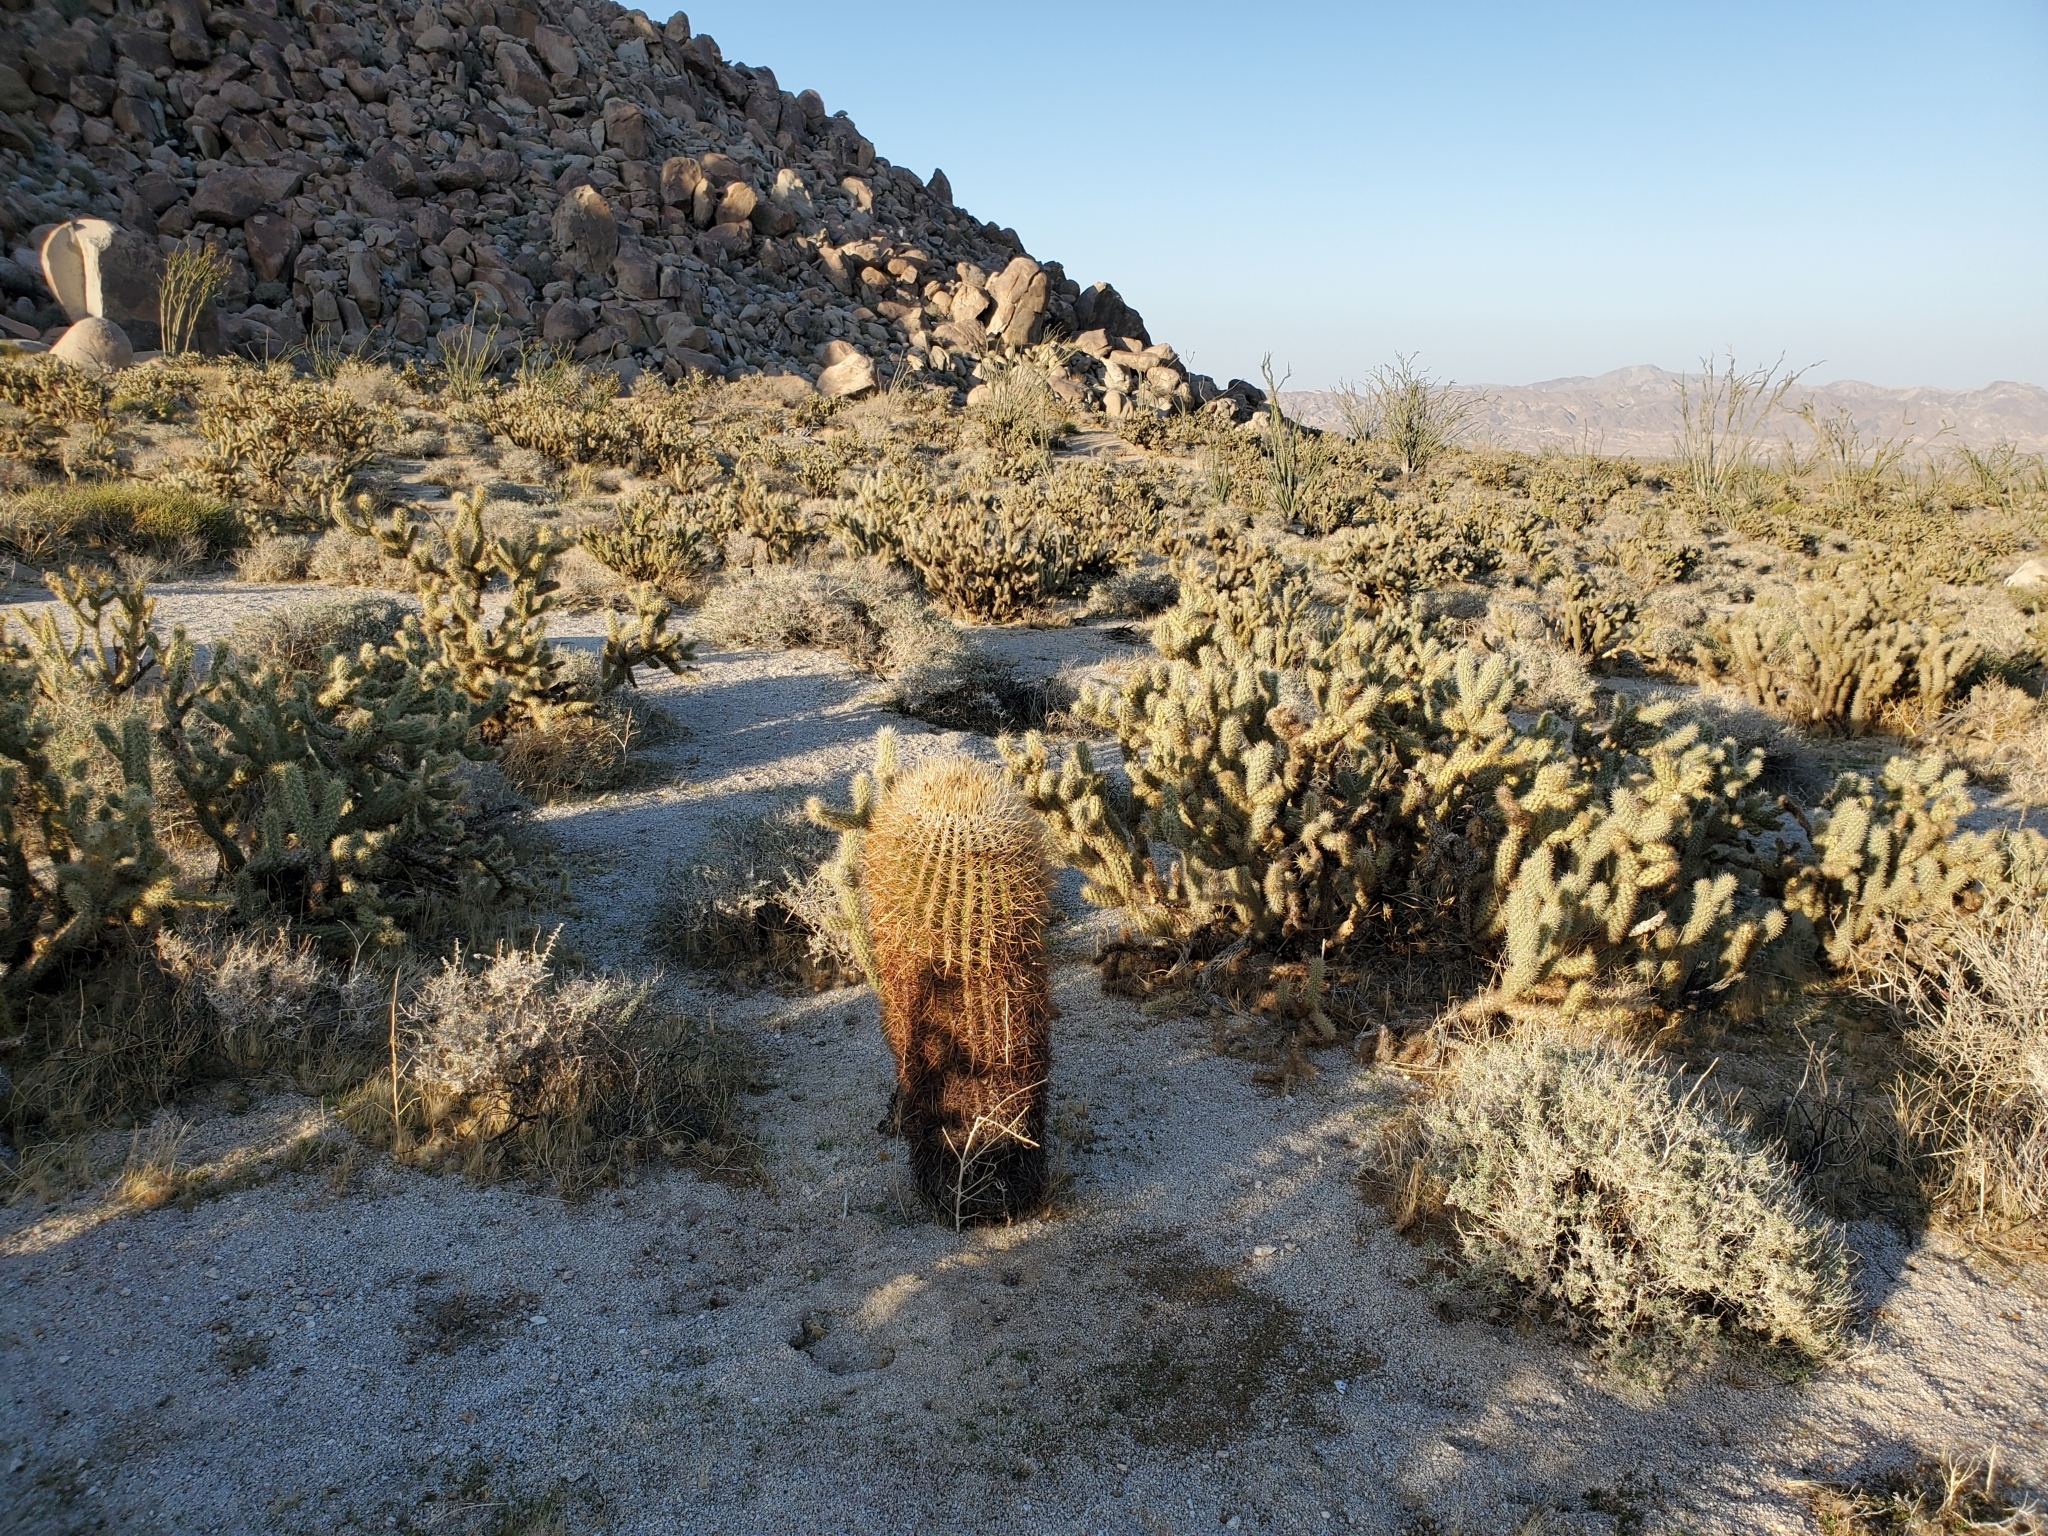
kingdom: Plantae
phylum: Tracheophyta
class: Magnoliopsida
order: Caryophyllales
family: Cactaceae
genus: Ferocactus
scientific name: Ferocactus cylindraceus
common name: California barrel cactus
